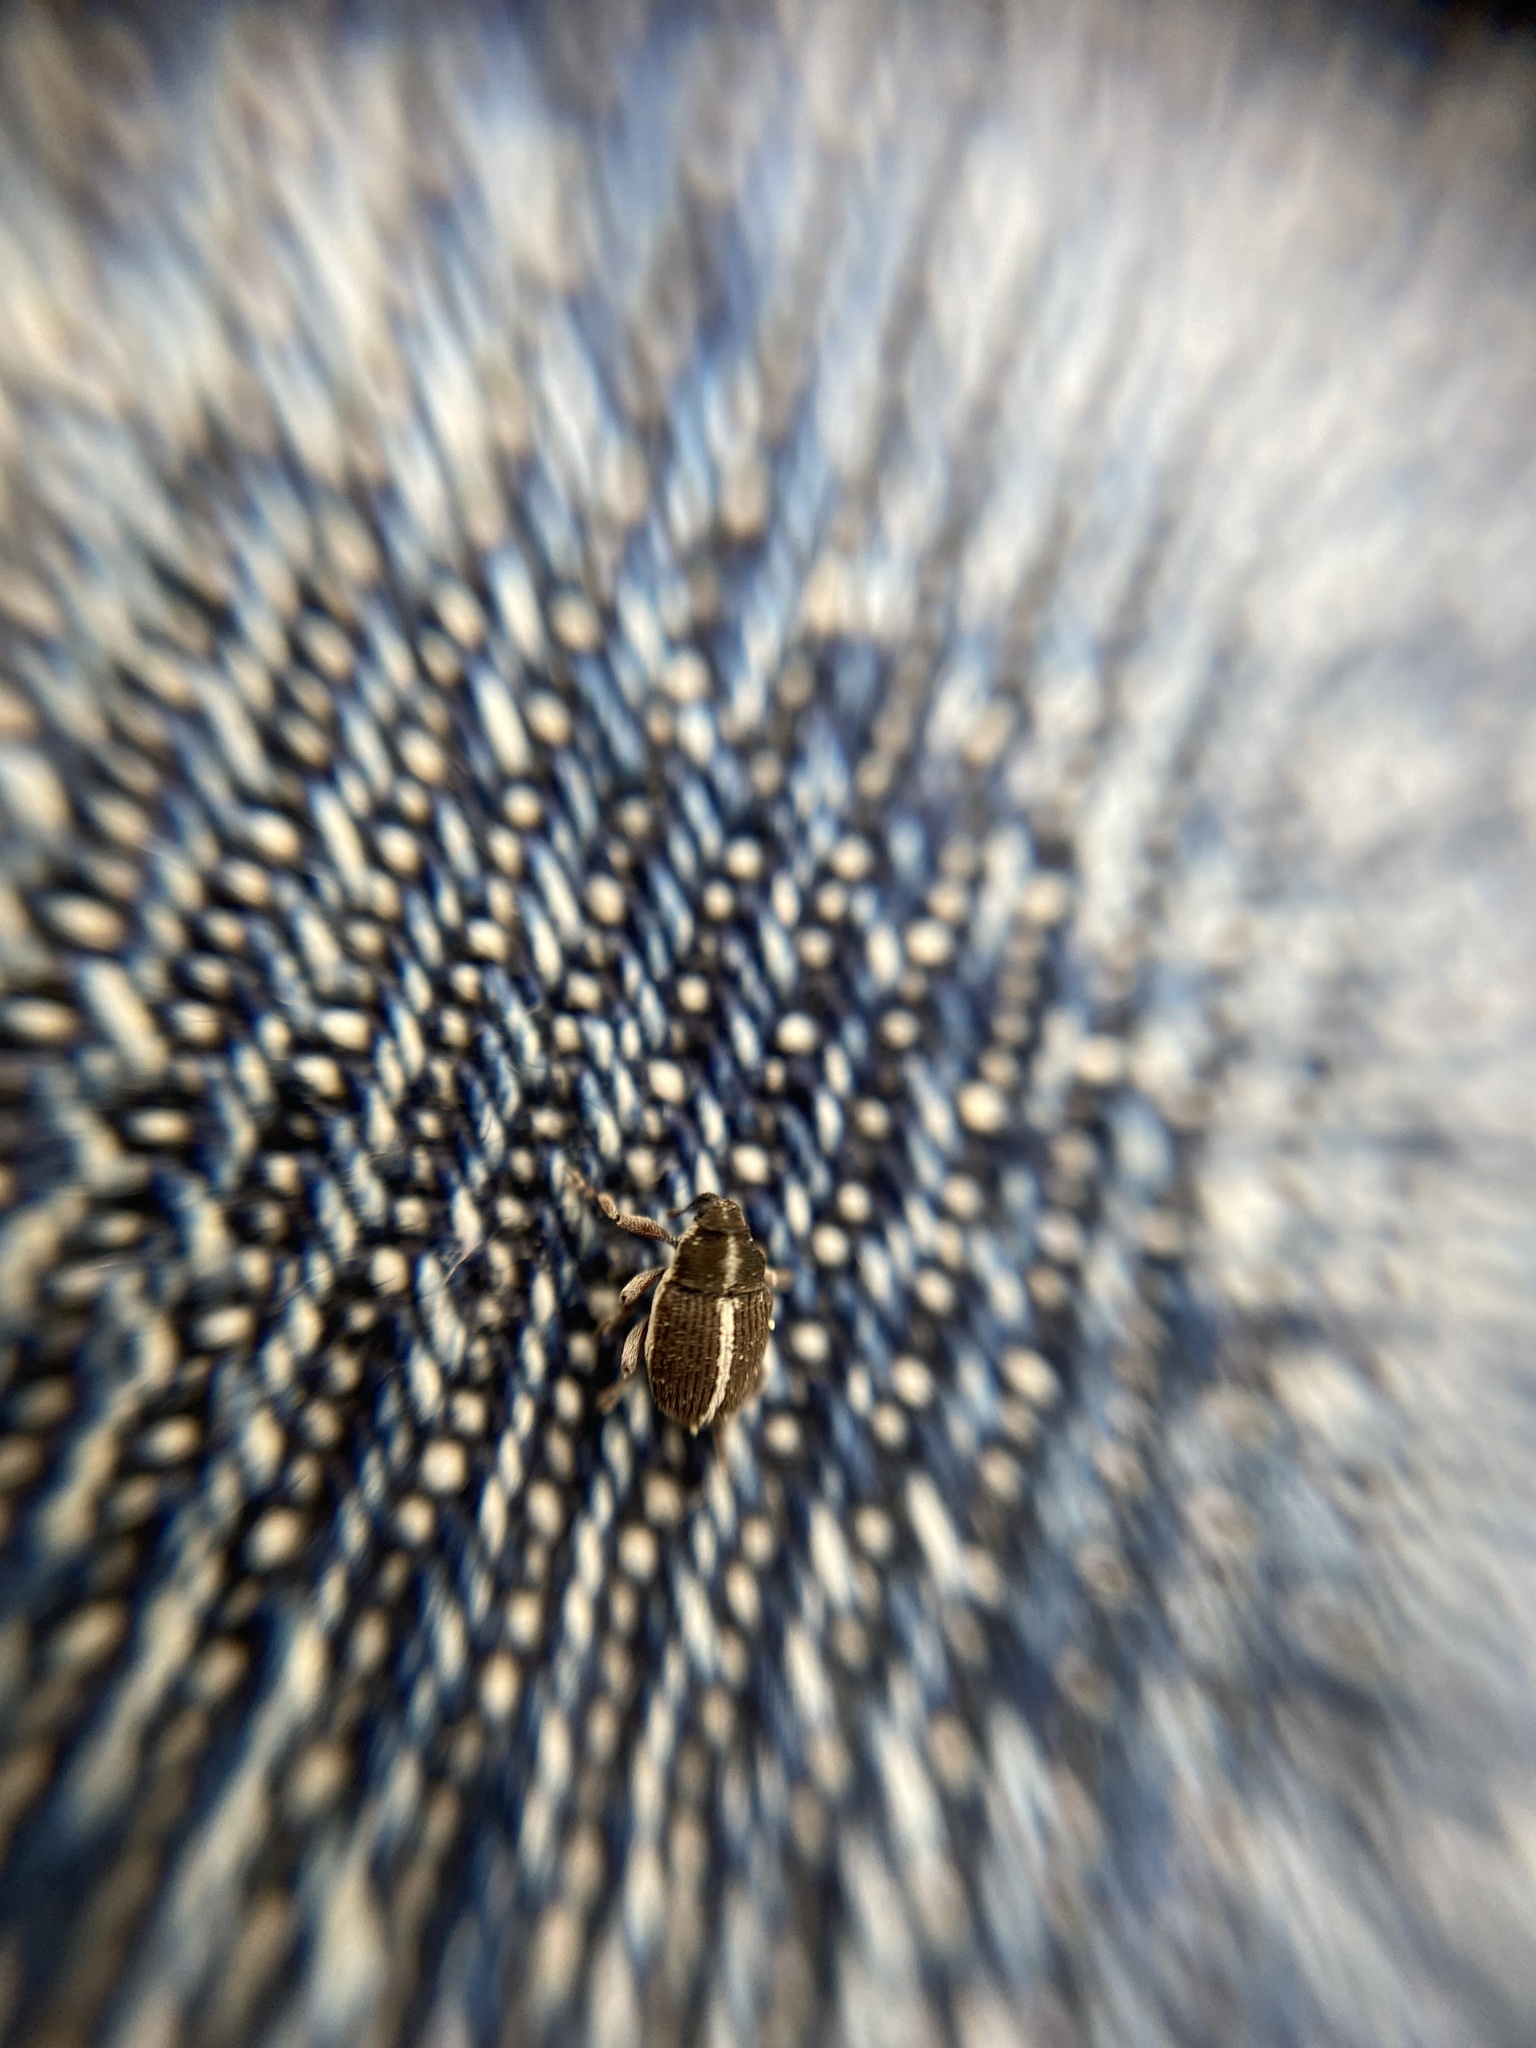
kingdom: Animalia
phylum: Arthropoda
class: Insecta
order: Coleoptera
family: Curculionidae
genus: Oprohinus
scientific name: Oprohinus suturalis
